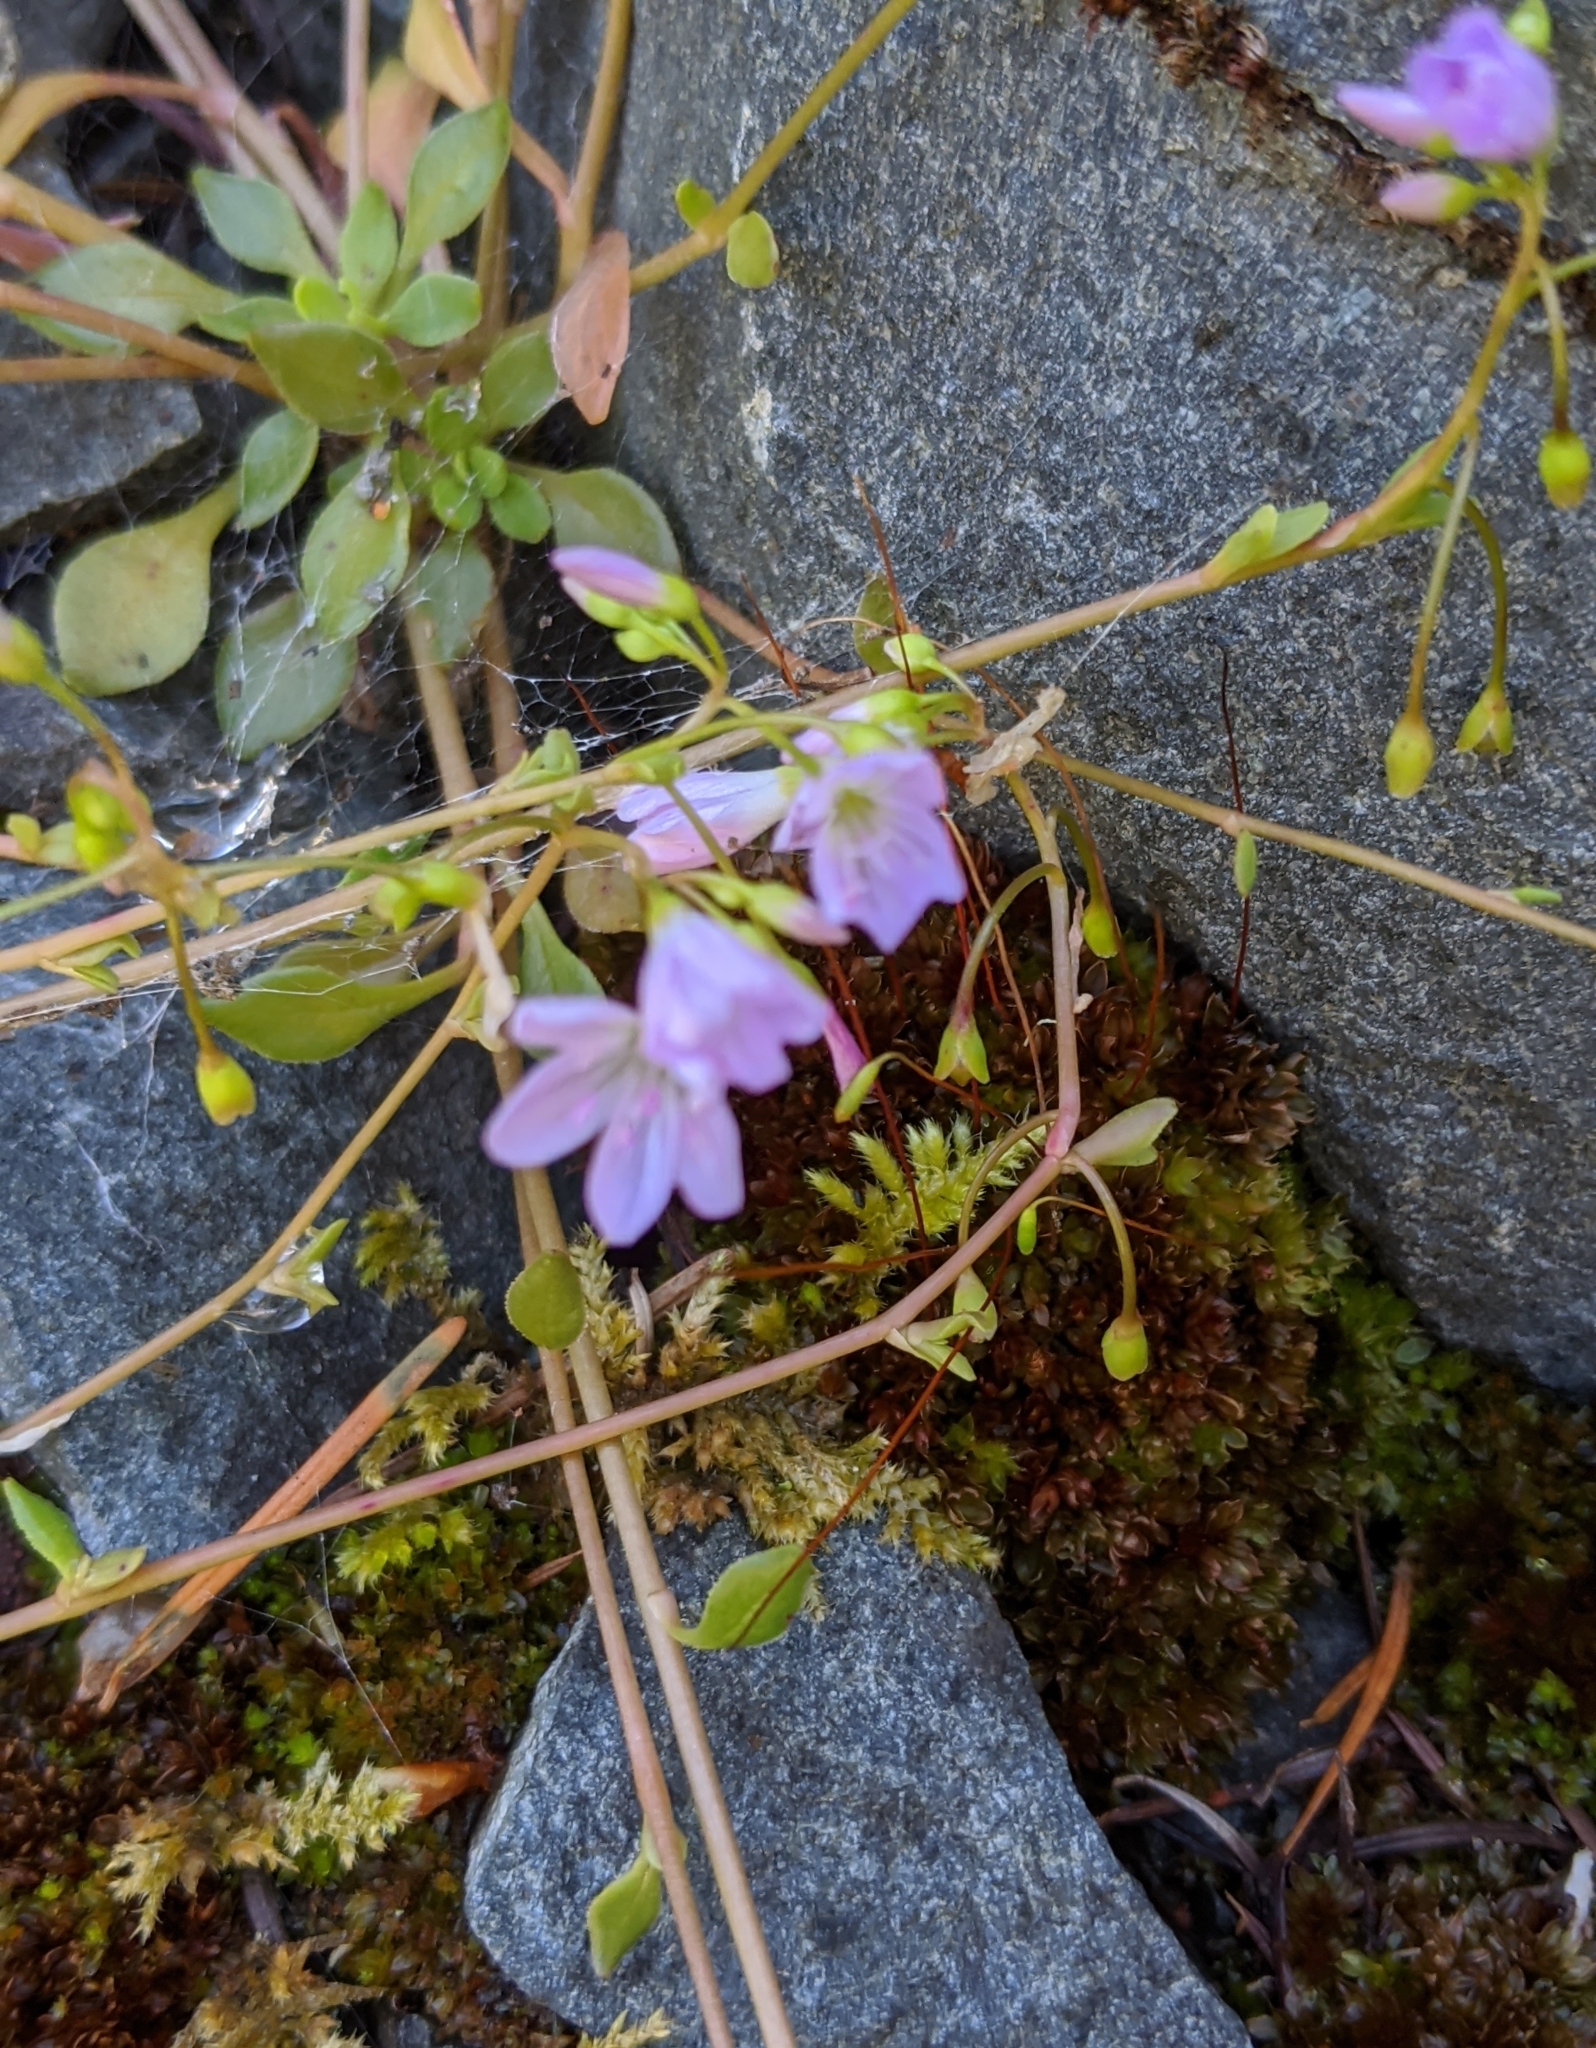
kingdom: Plantae
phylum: Tracheophyta
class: Magnoliopsida
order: Caryophyllales
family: Montiaceae
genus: Montia
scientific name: Montia parvifolia
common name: Small-leaved blinks
